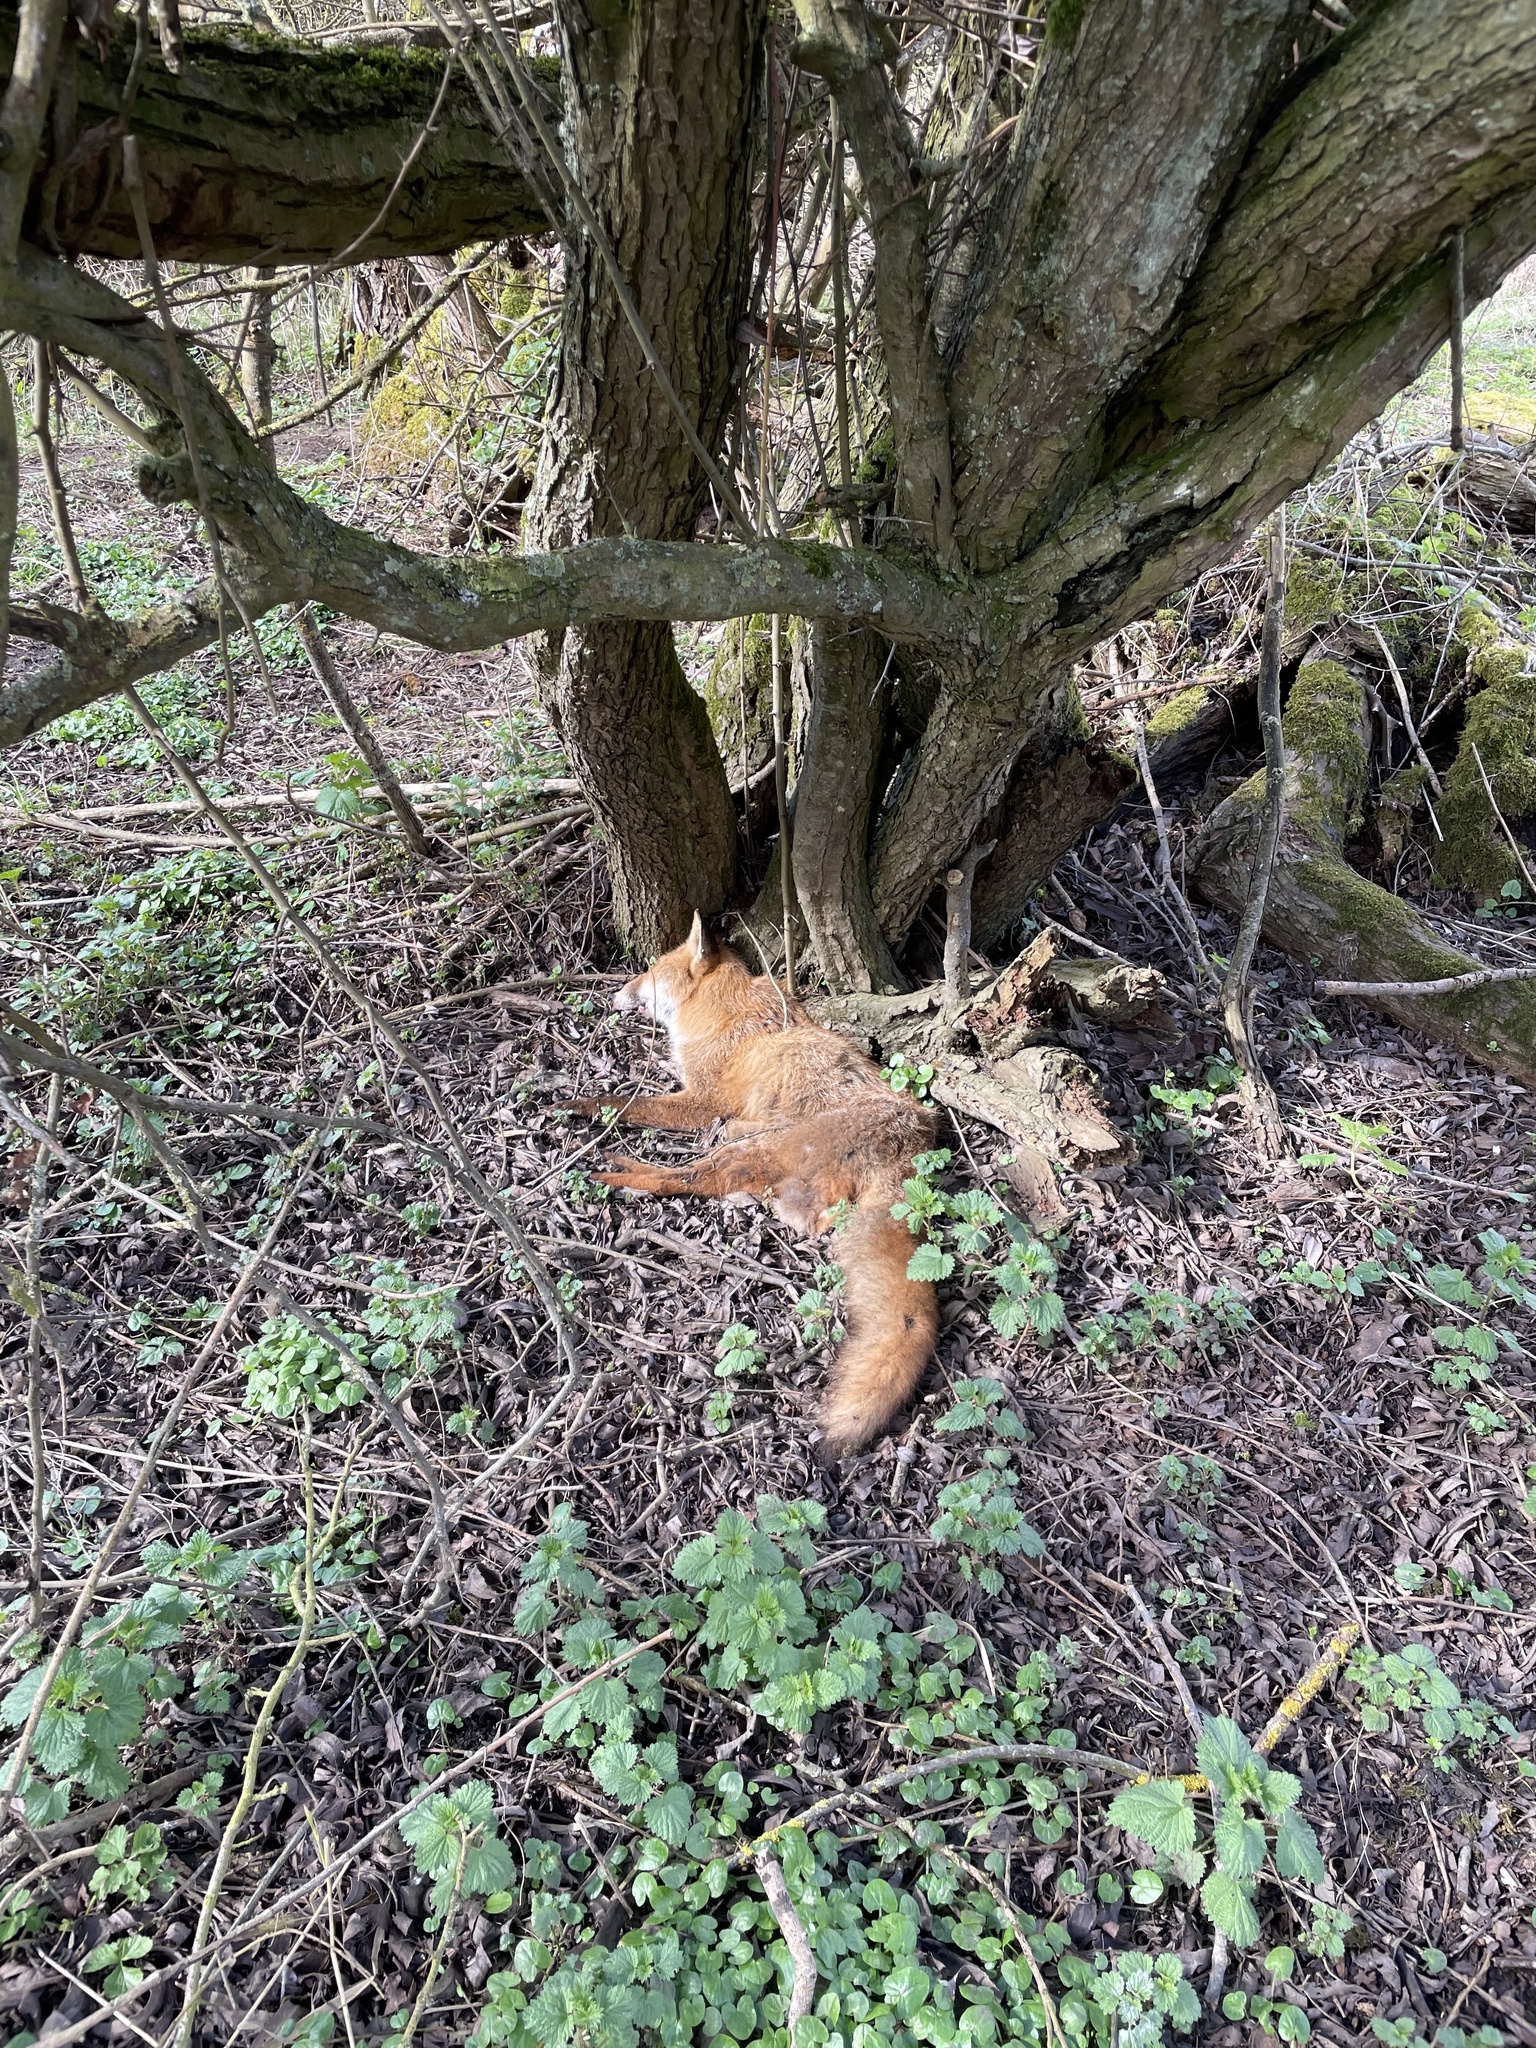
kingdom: Animalia
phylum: Chordata
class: Mammalia
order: Carnivora
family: Canidae
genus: Vulpes
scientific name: Vulpes vulpes
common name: Red fox
